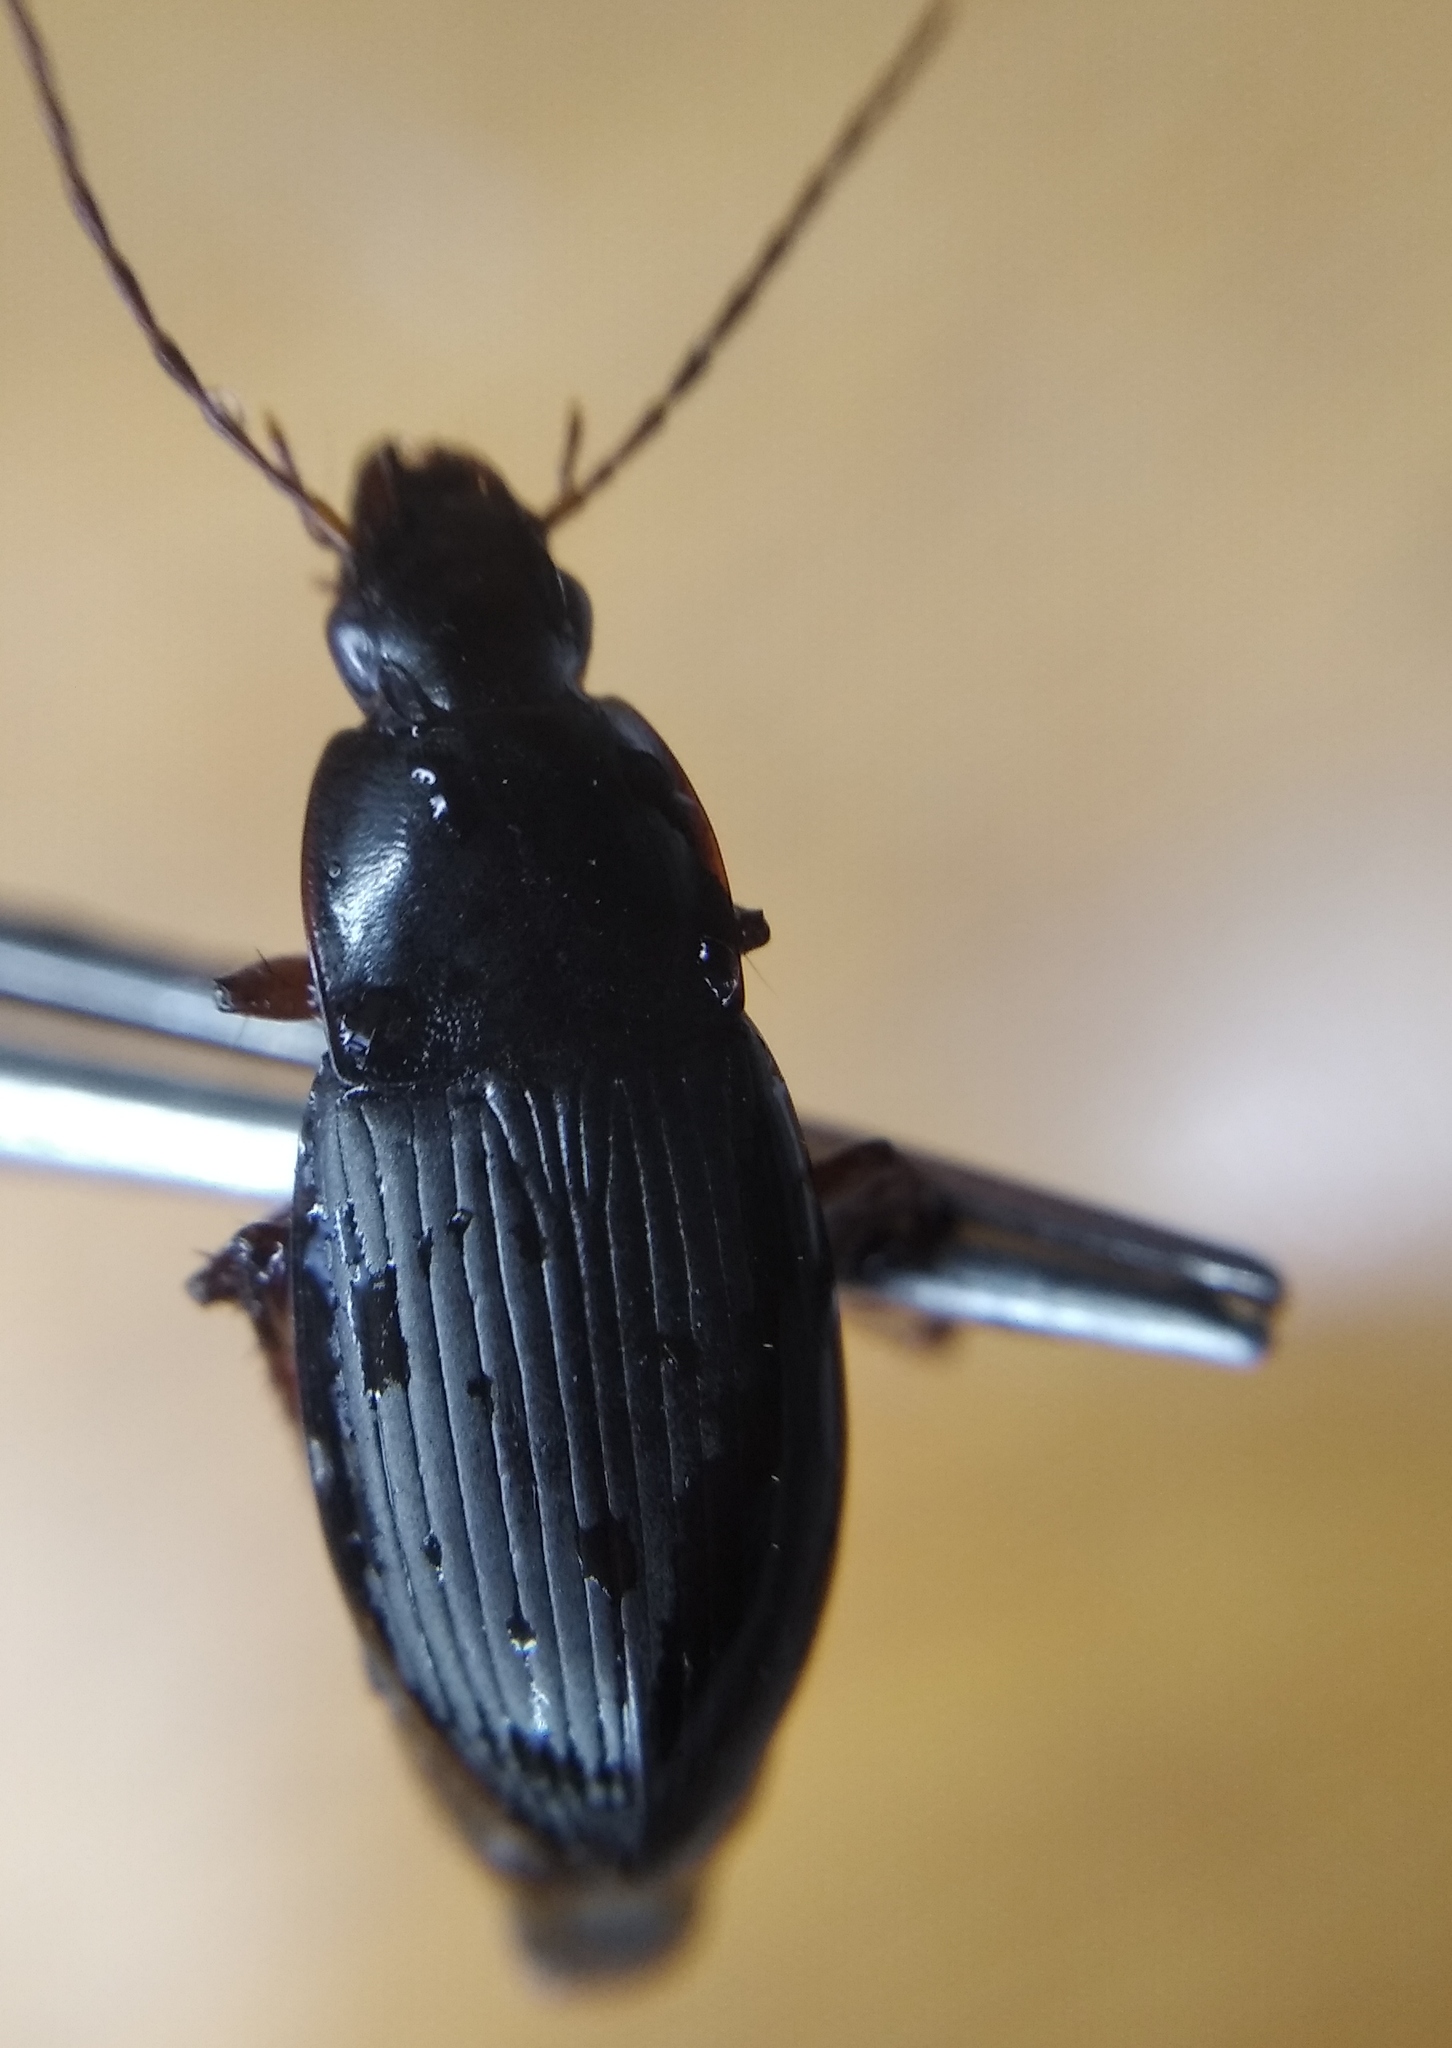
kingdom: Animalia
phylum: Arthropoda
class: Insecta
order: Coleoptera
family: Carabidae
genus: Calathus
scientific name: Calathus fuscipes
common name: Dark-footed harp ground beetle
